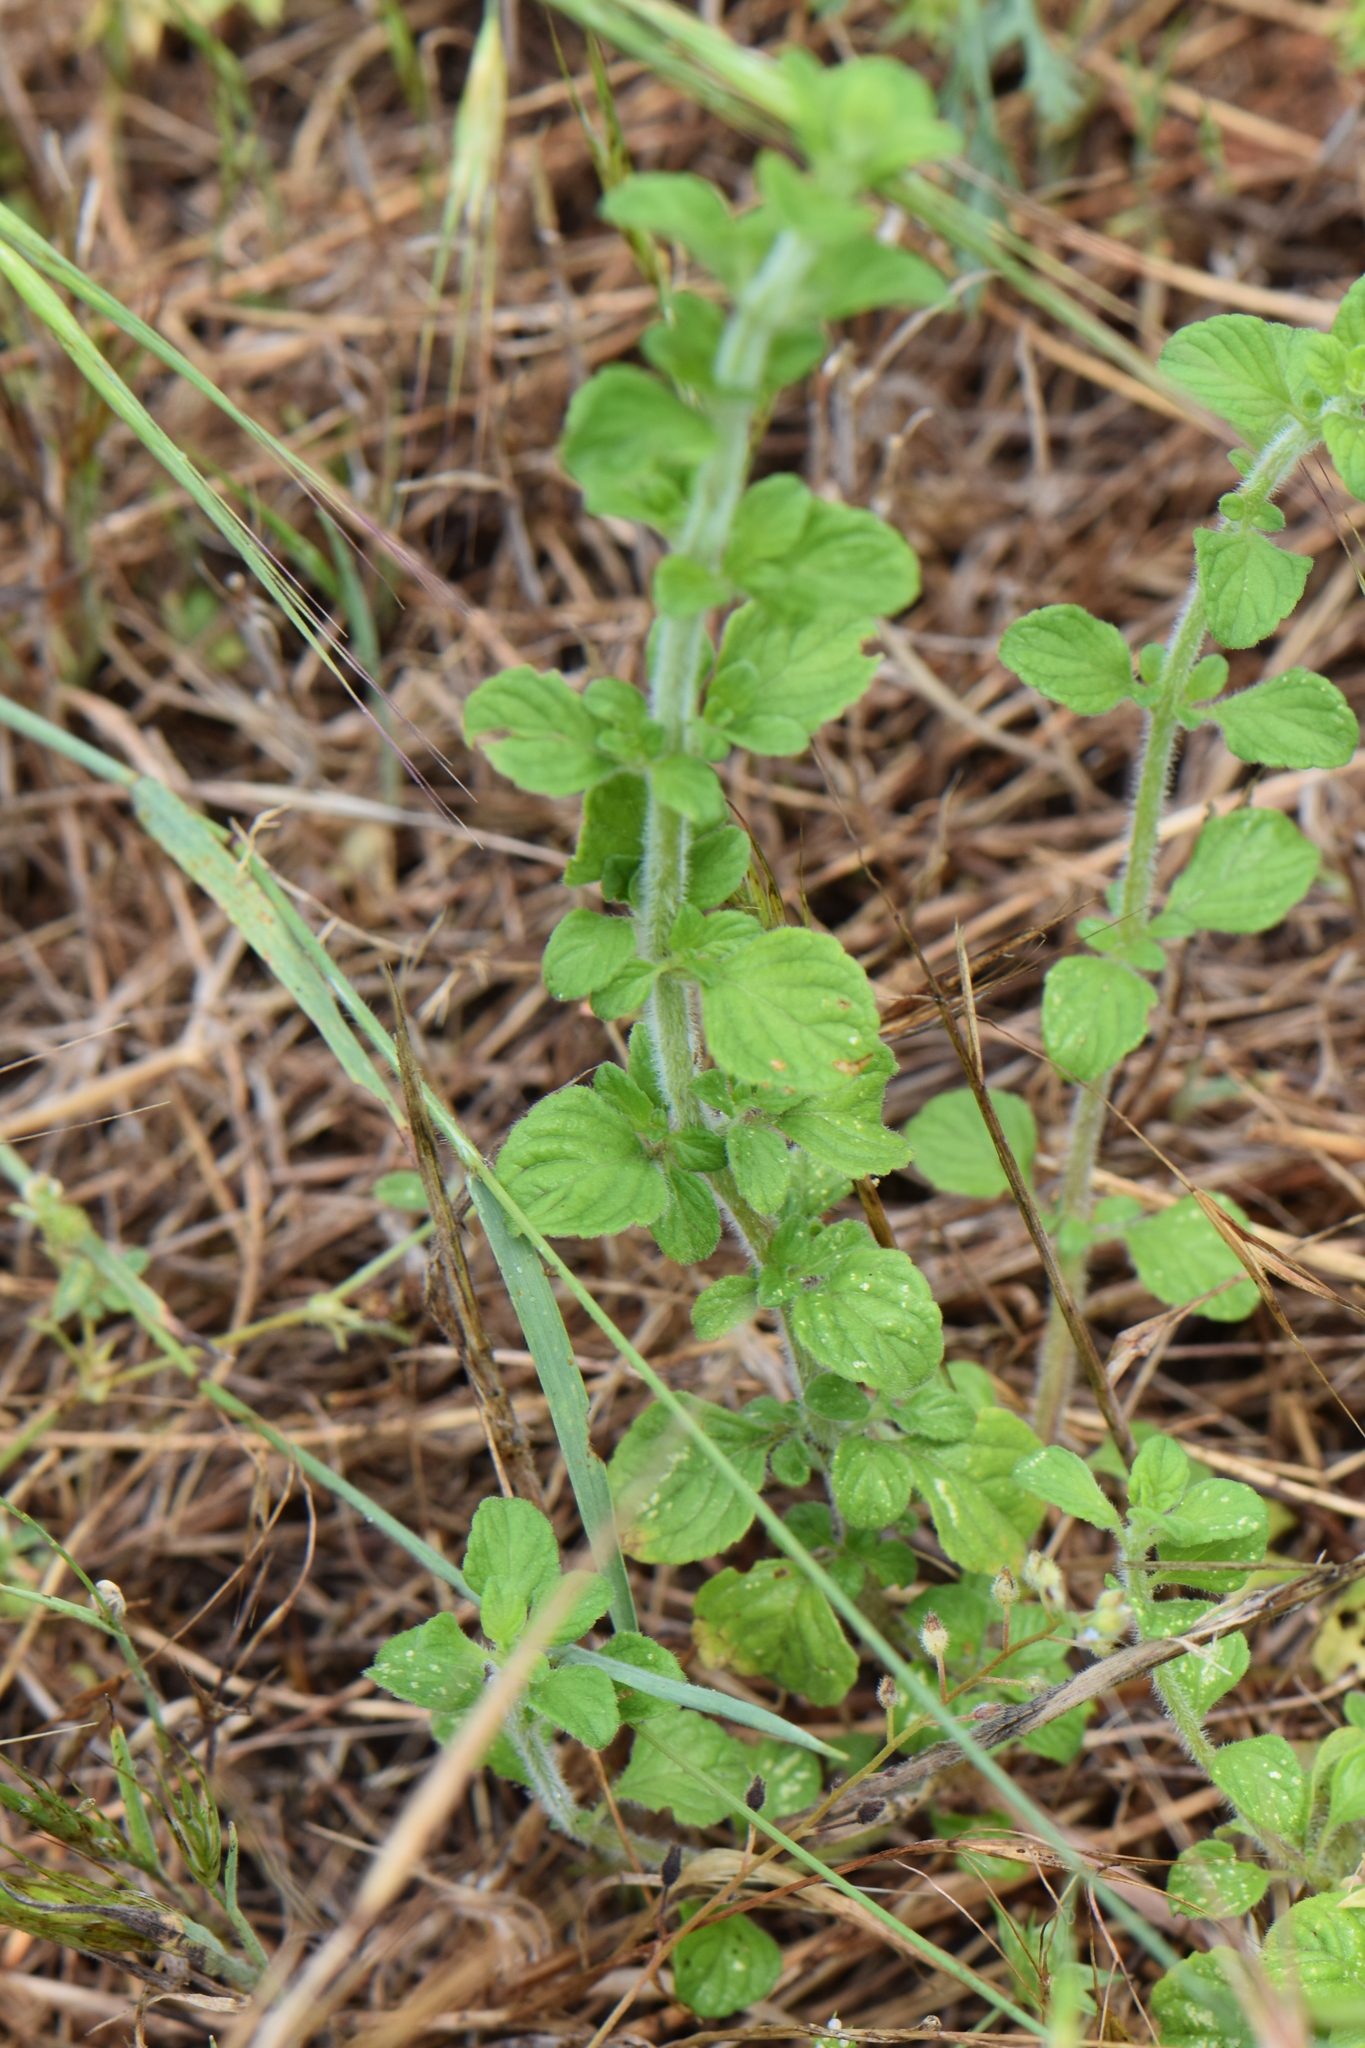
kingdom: Plantae
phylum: Tracheophyta
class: Magnoliopsida
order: Lamiales
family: Lamiaceae
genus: Clinopodium
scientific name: Clinopodium nepeta
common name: Lesser calamint
